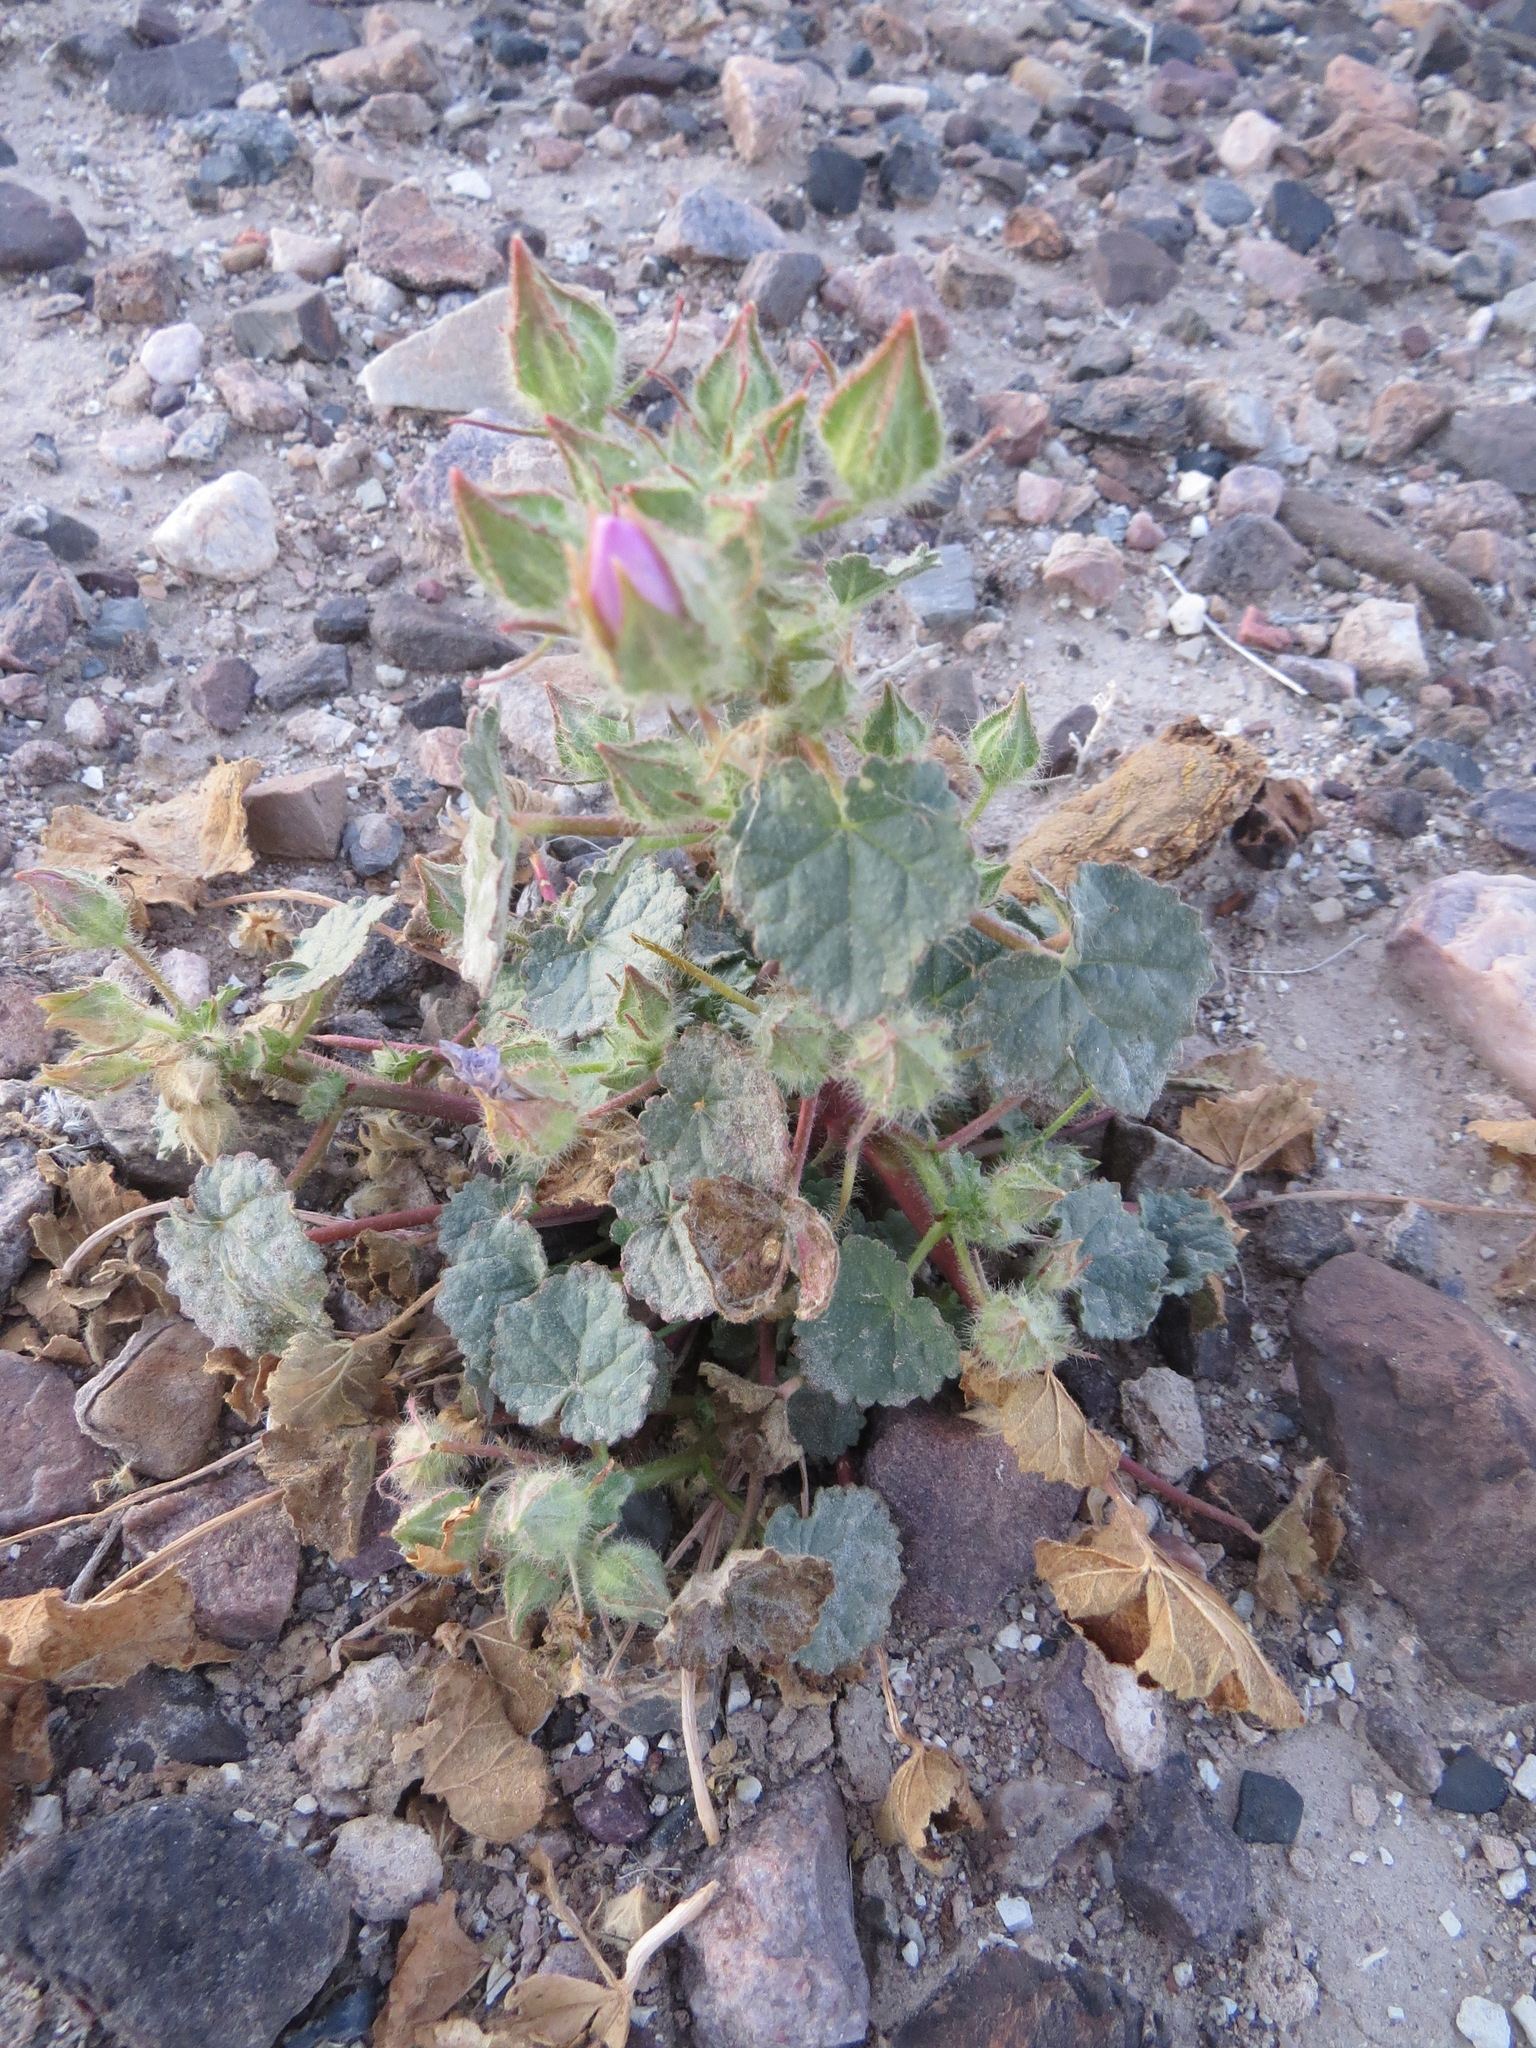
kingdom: Plantae
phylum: Tracheophyta
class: Magnoliopsida
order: Malvales
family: Malvaceae
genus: Eremalche
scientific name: Eremalche rotundifolia
